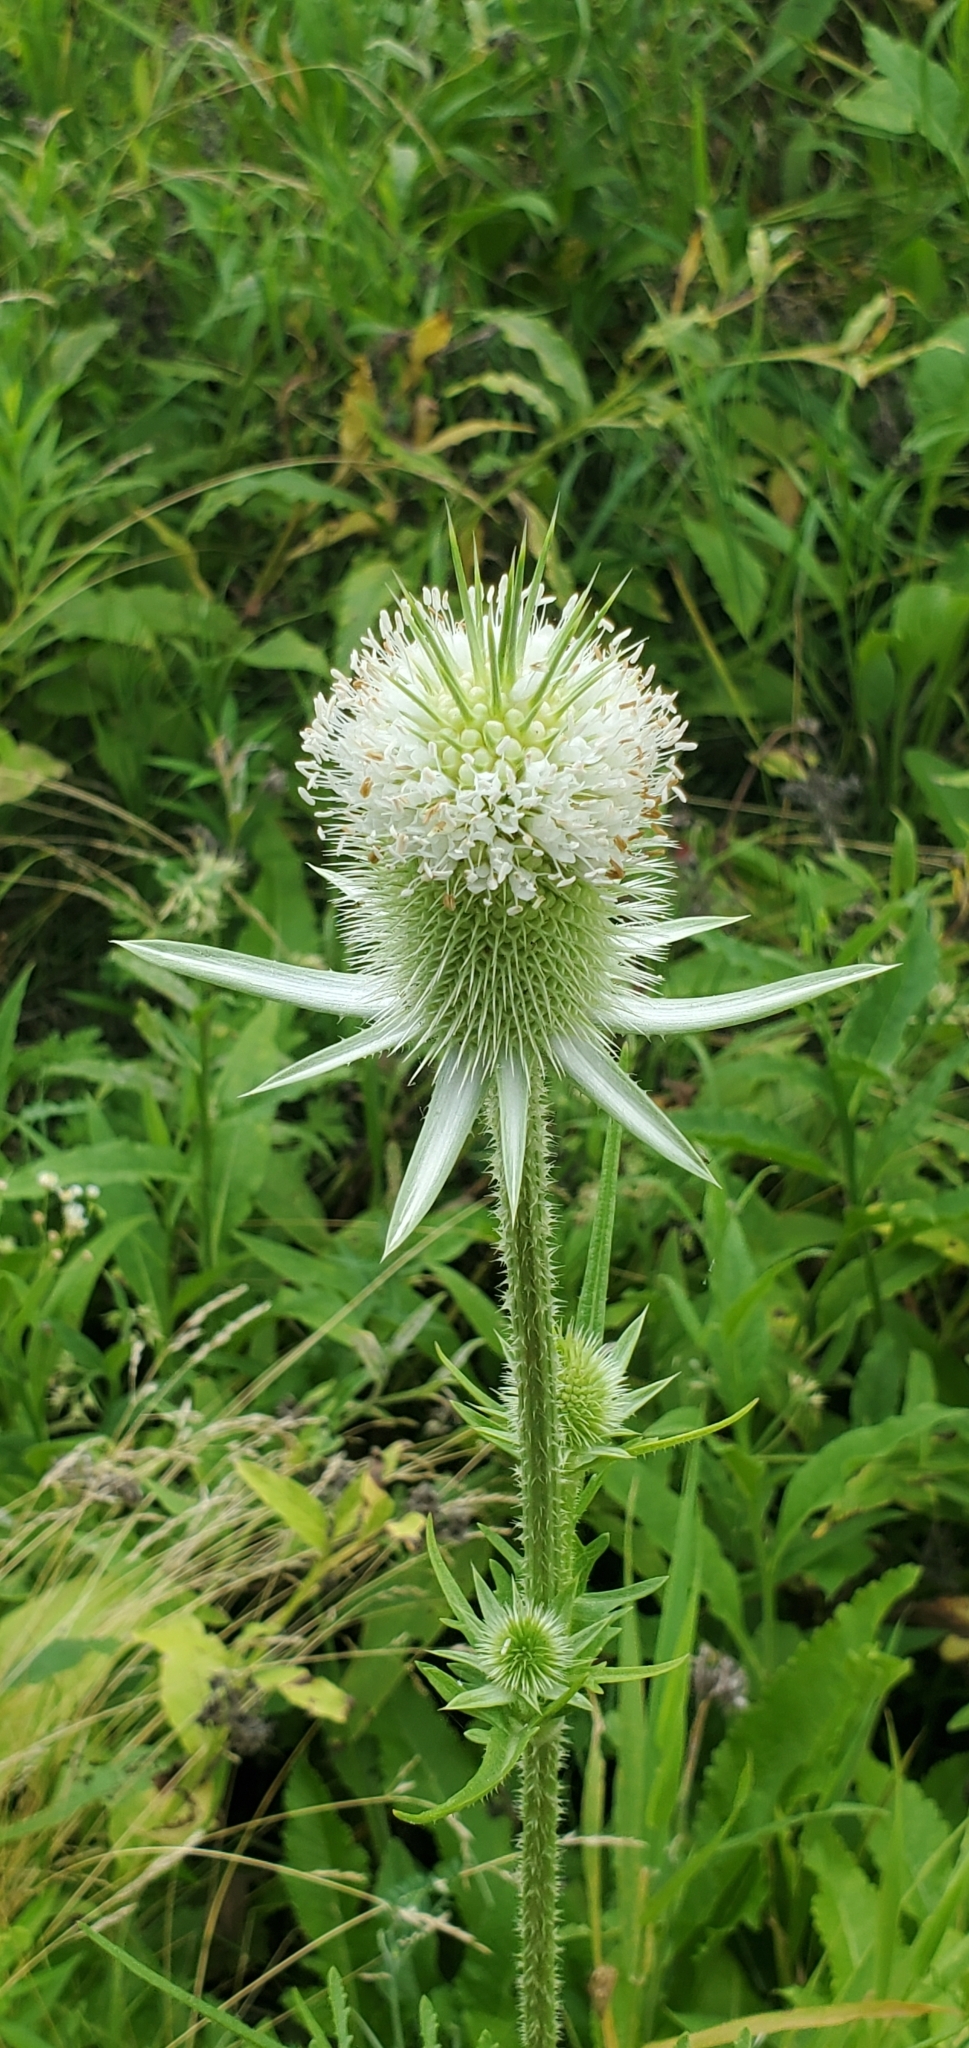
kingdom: Plantae
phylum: Tracheophyta
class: Magnoliopsida
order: Dipsacales
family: Caprifoliaceae
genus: Dipsacus
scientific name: Dipsacus laciniatus
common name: Cut-leaved teasel
